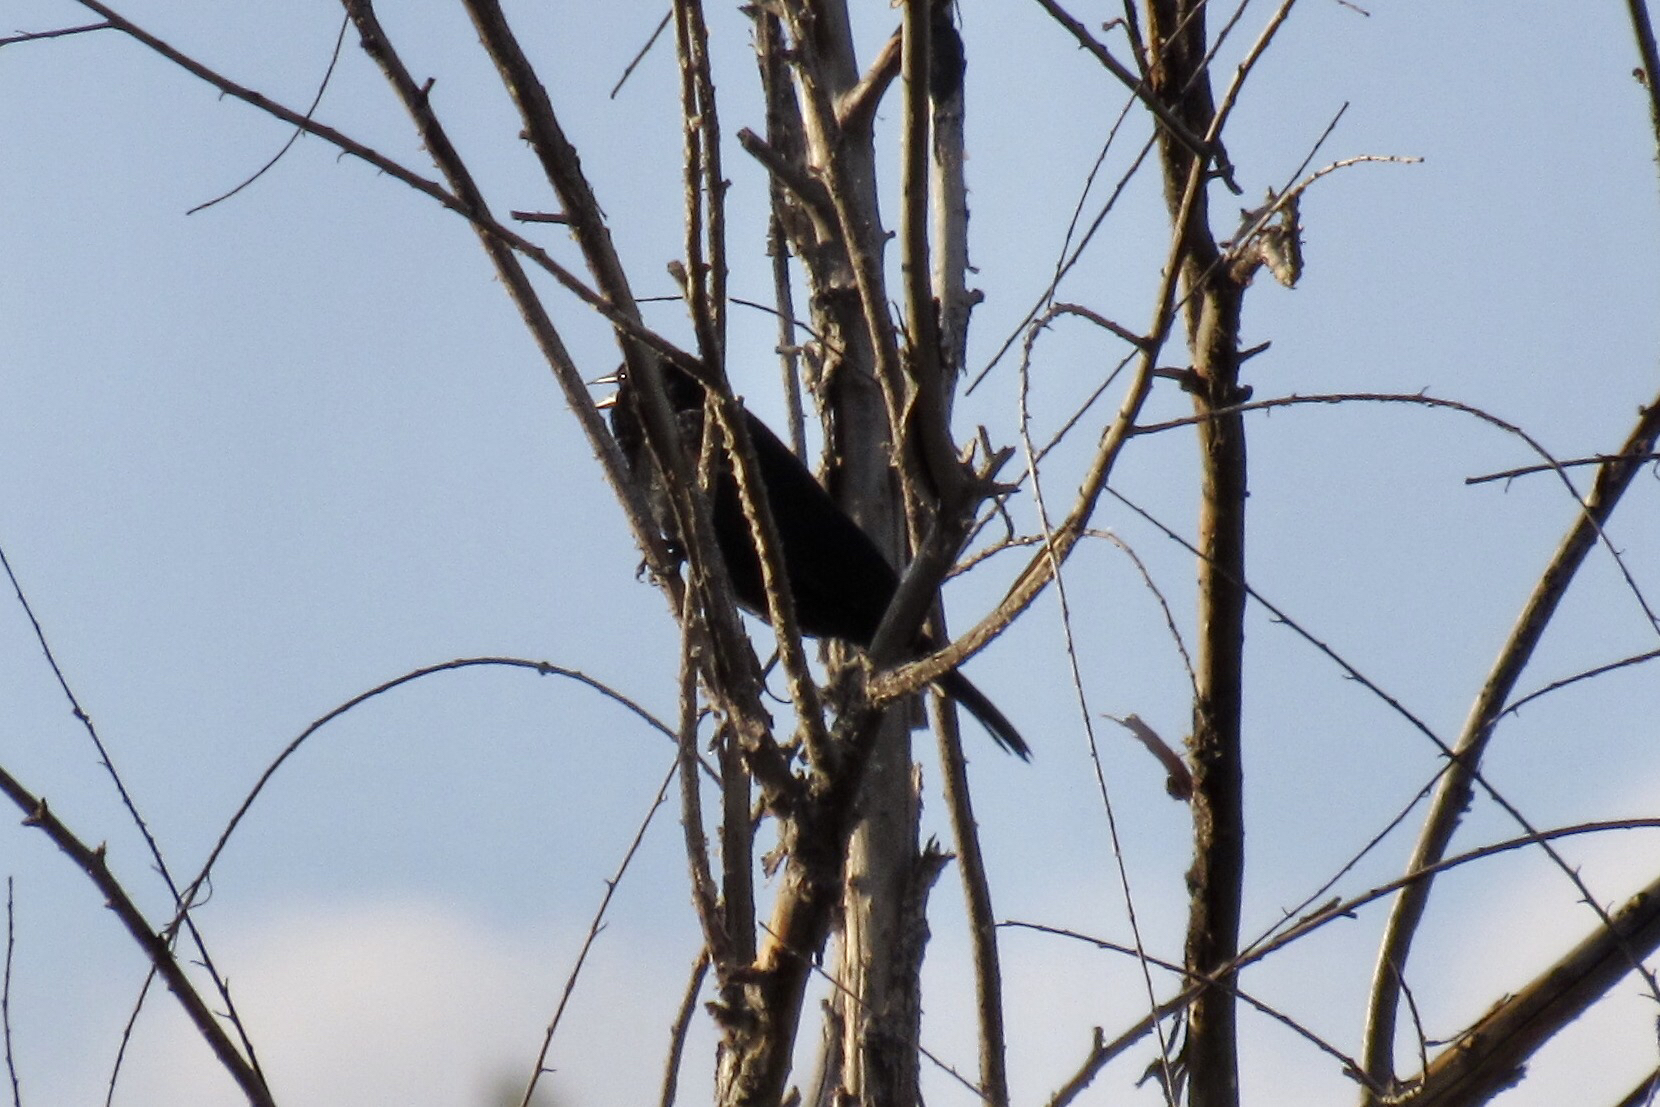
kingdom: Animalia
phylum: Chordata
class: Aves
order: Passeriformes
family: Icteridae
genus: Agelaius
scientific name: Agelaius phoeniceus
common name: Red-winged blackbird
